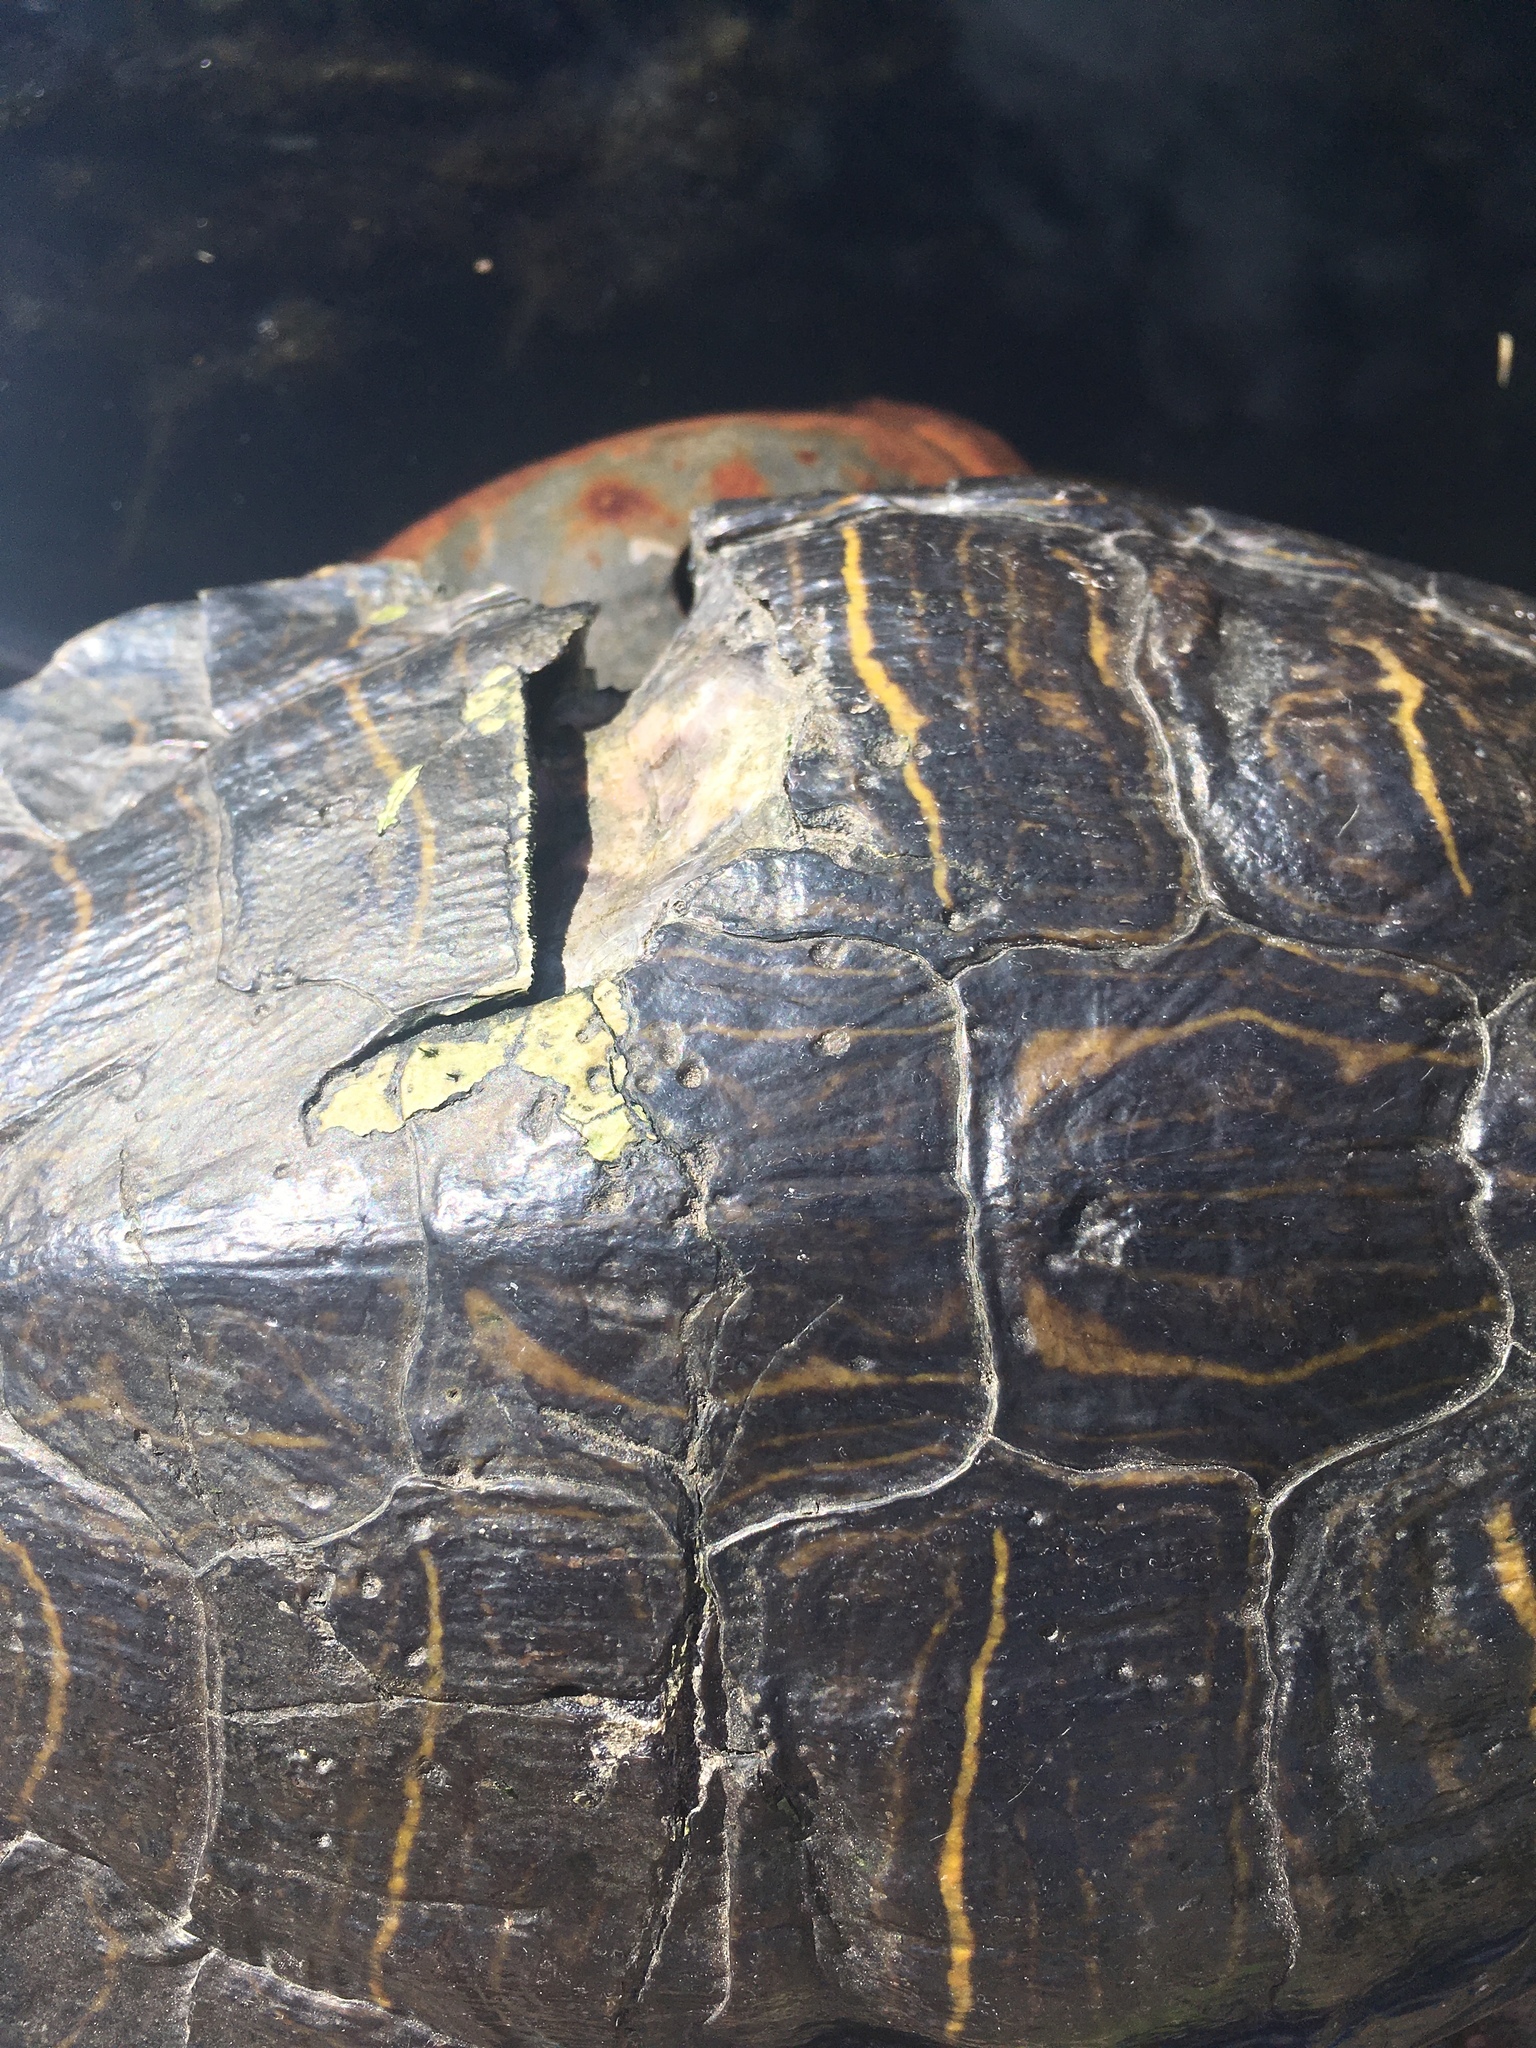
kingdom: Animalia
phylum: Chordata
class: Testudines
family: Emydidae
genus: Trachemys
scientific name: Trachemys scripta
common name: Slider
